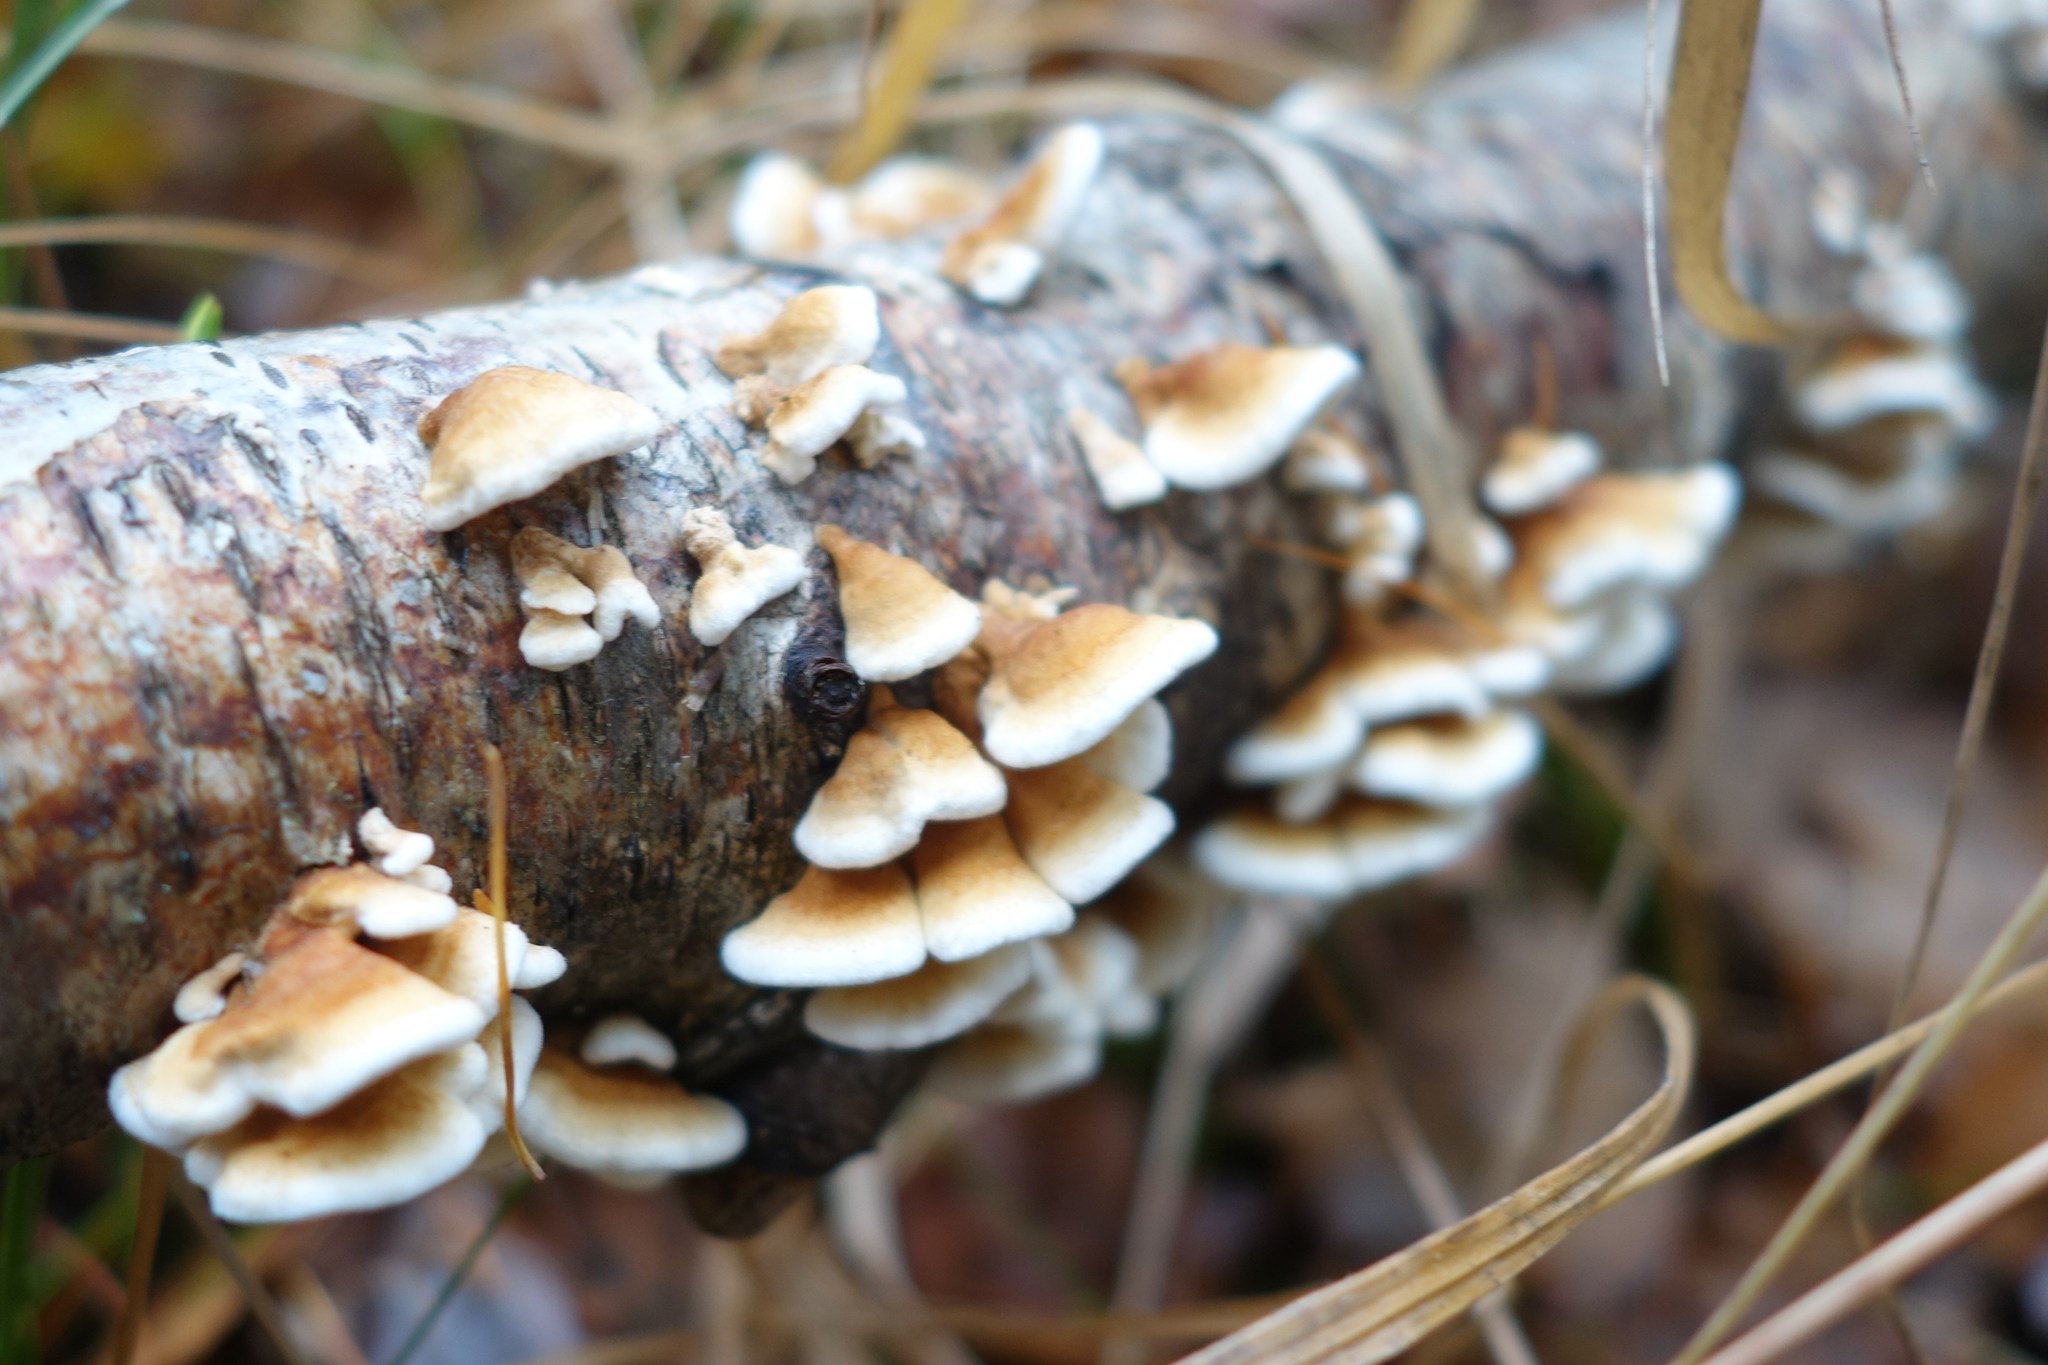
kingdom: Fungi
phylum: Basidiomycota
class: Agaricomycetes
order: Amylocorticiales
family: Amylocorticiaceae
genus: Plicaturopsis
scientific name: Plicaturopsis crispa
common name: Crimped gill
